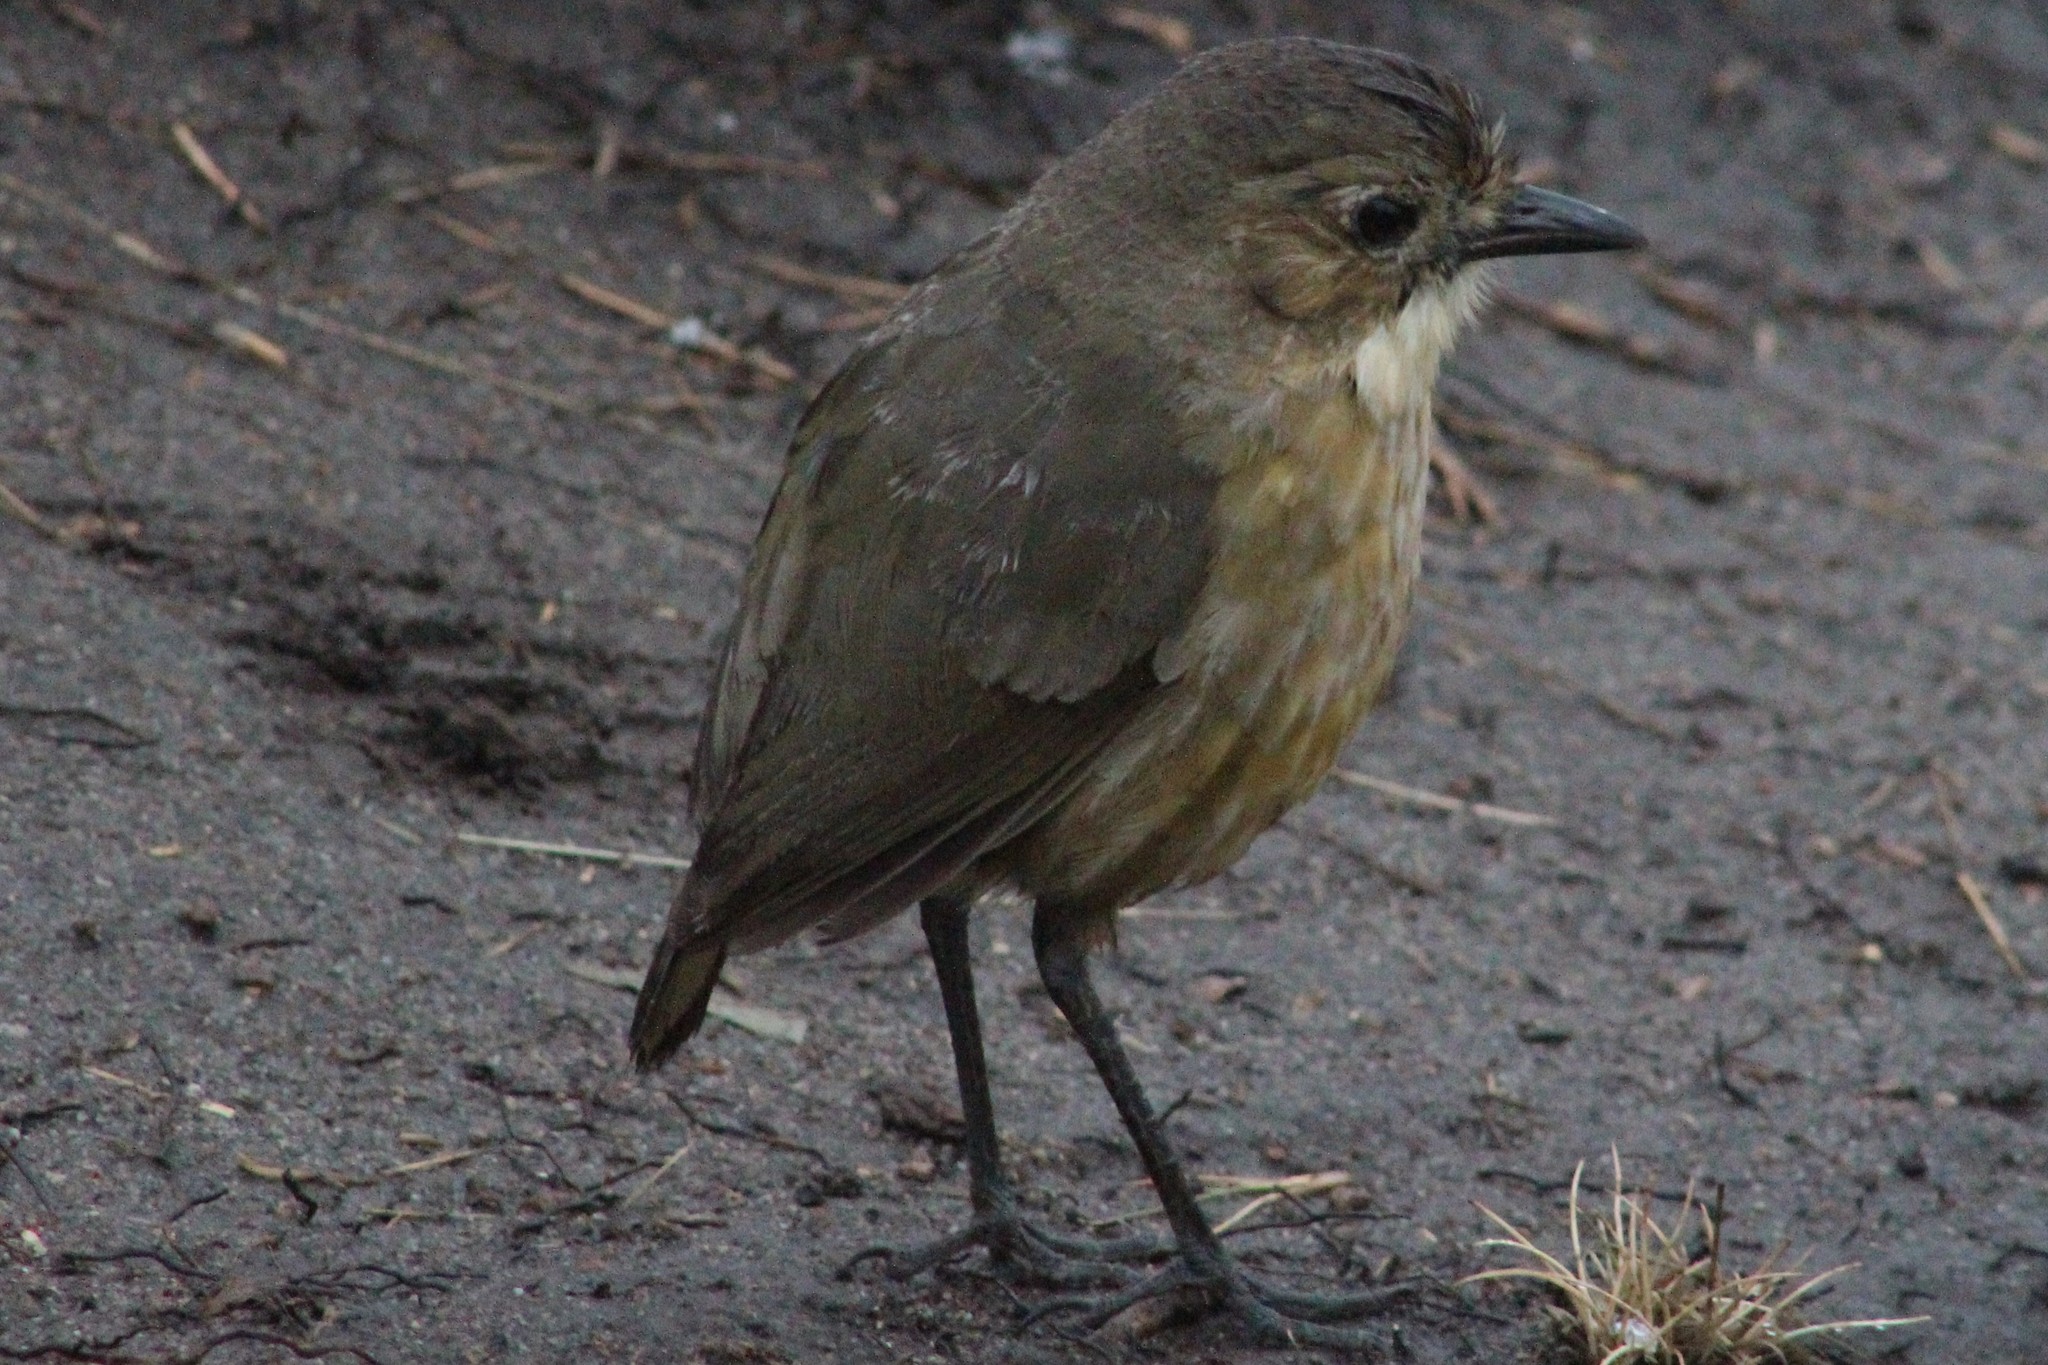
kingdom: Animalia
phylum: Chordata
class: Aves
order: Passeriformes
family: Grallariidae
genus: Grallaria
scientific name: Grallaria quitensis
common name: Tawny antpitta
